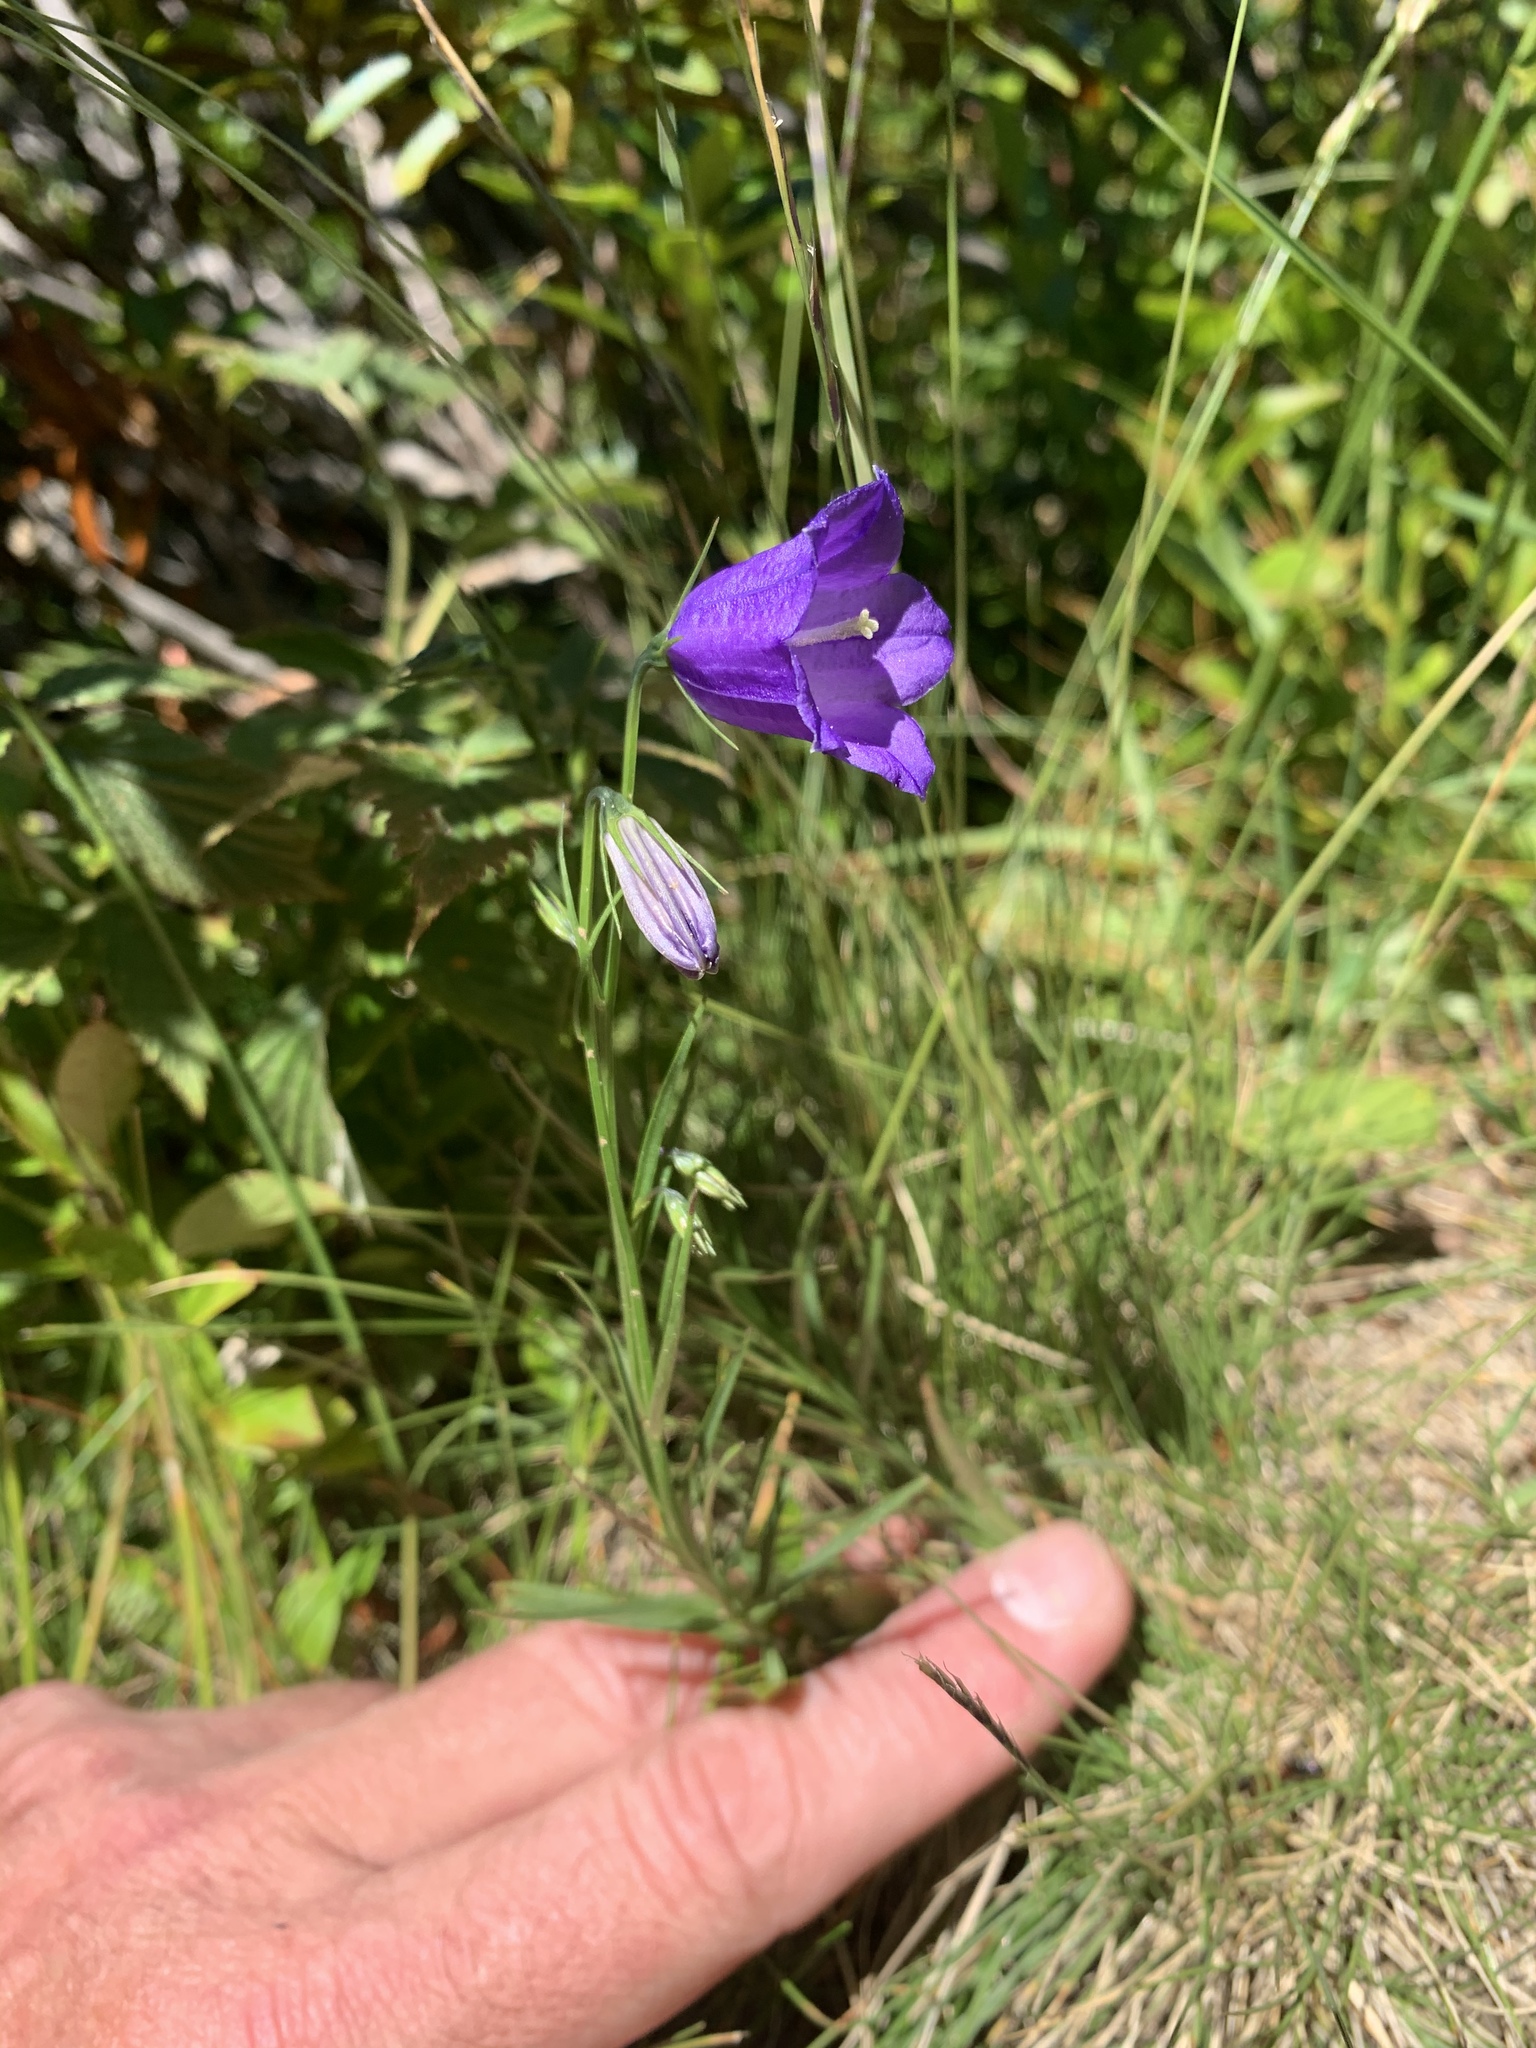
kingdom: Plantae
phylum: Tracheophyta
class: Magnoliopsida
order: Asterales
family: Campanulaceae
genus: Campanula
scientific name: Campanula scheuchzeri
